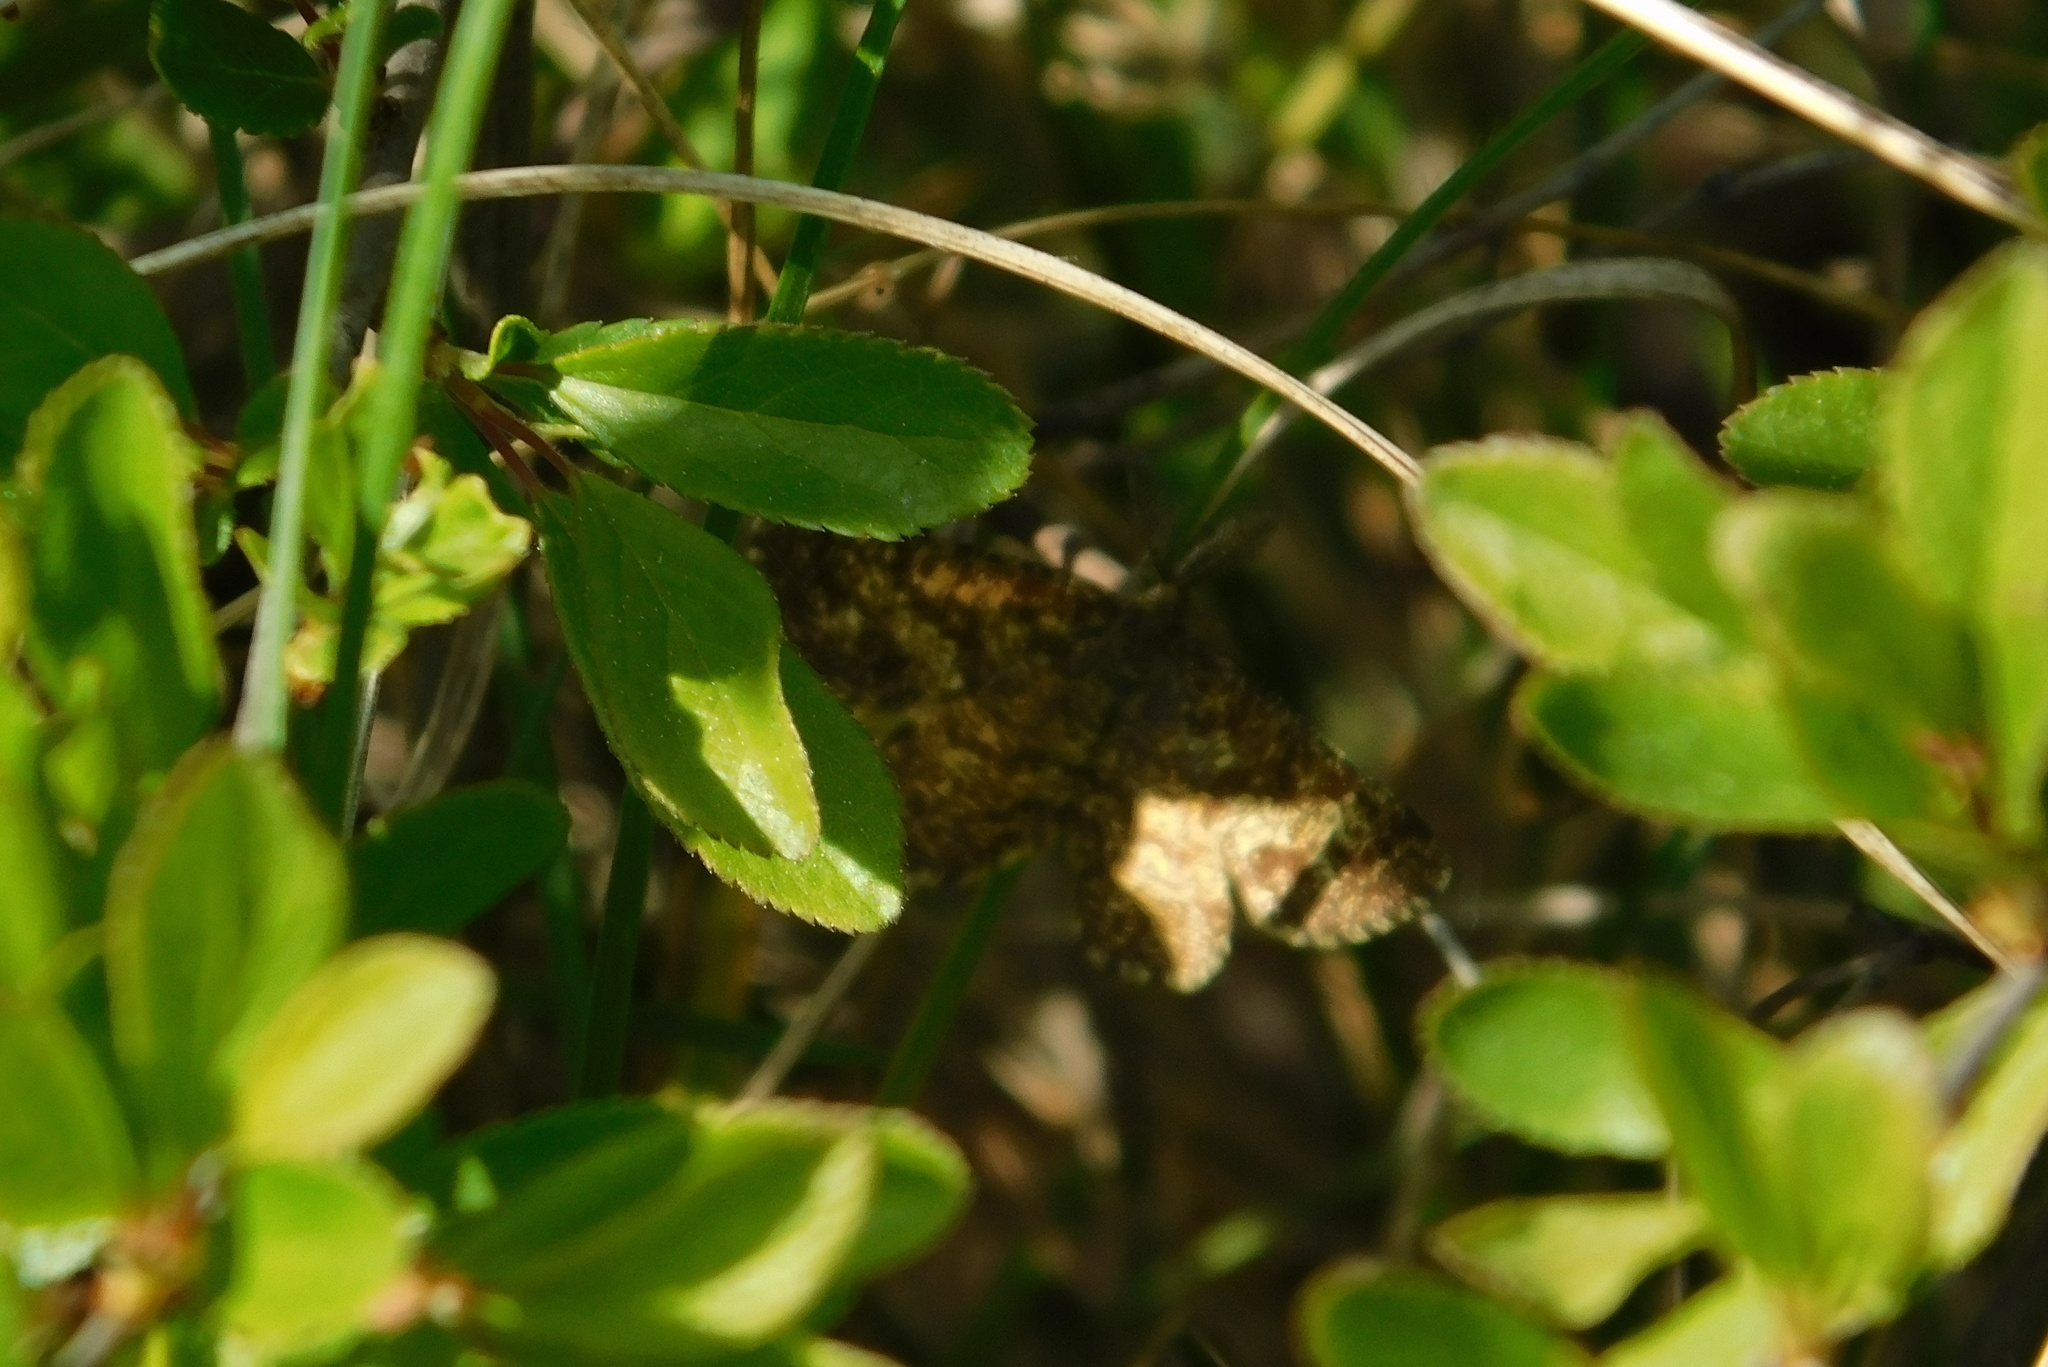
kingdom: Animalia
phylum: Arthropoda
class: Insecta
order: Lepidoptera
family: Geometridae
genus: Ematurga
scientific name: Ematurga atomaria
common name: Common heath
